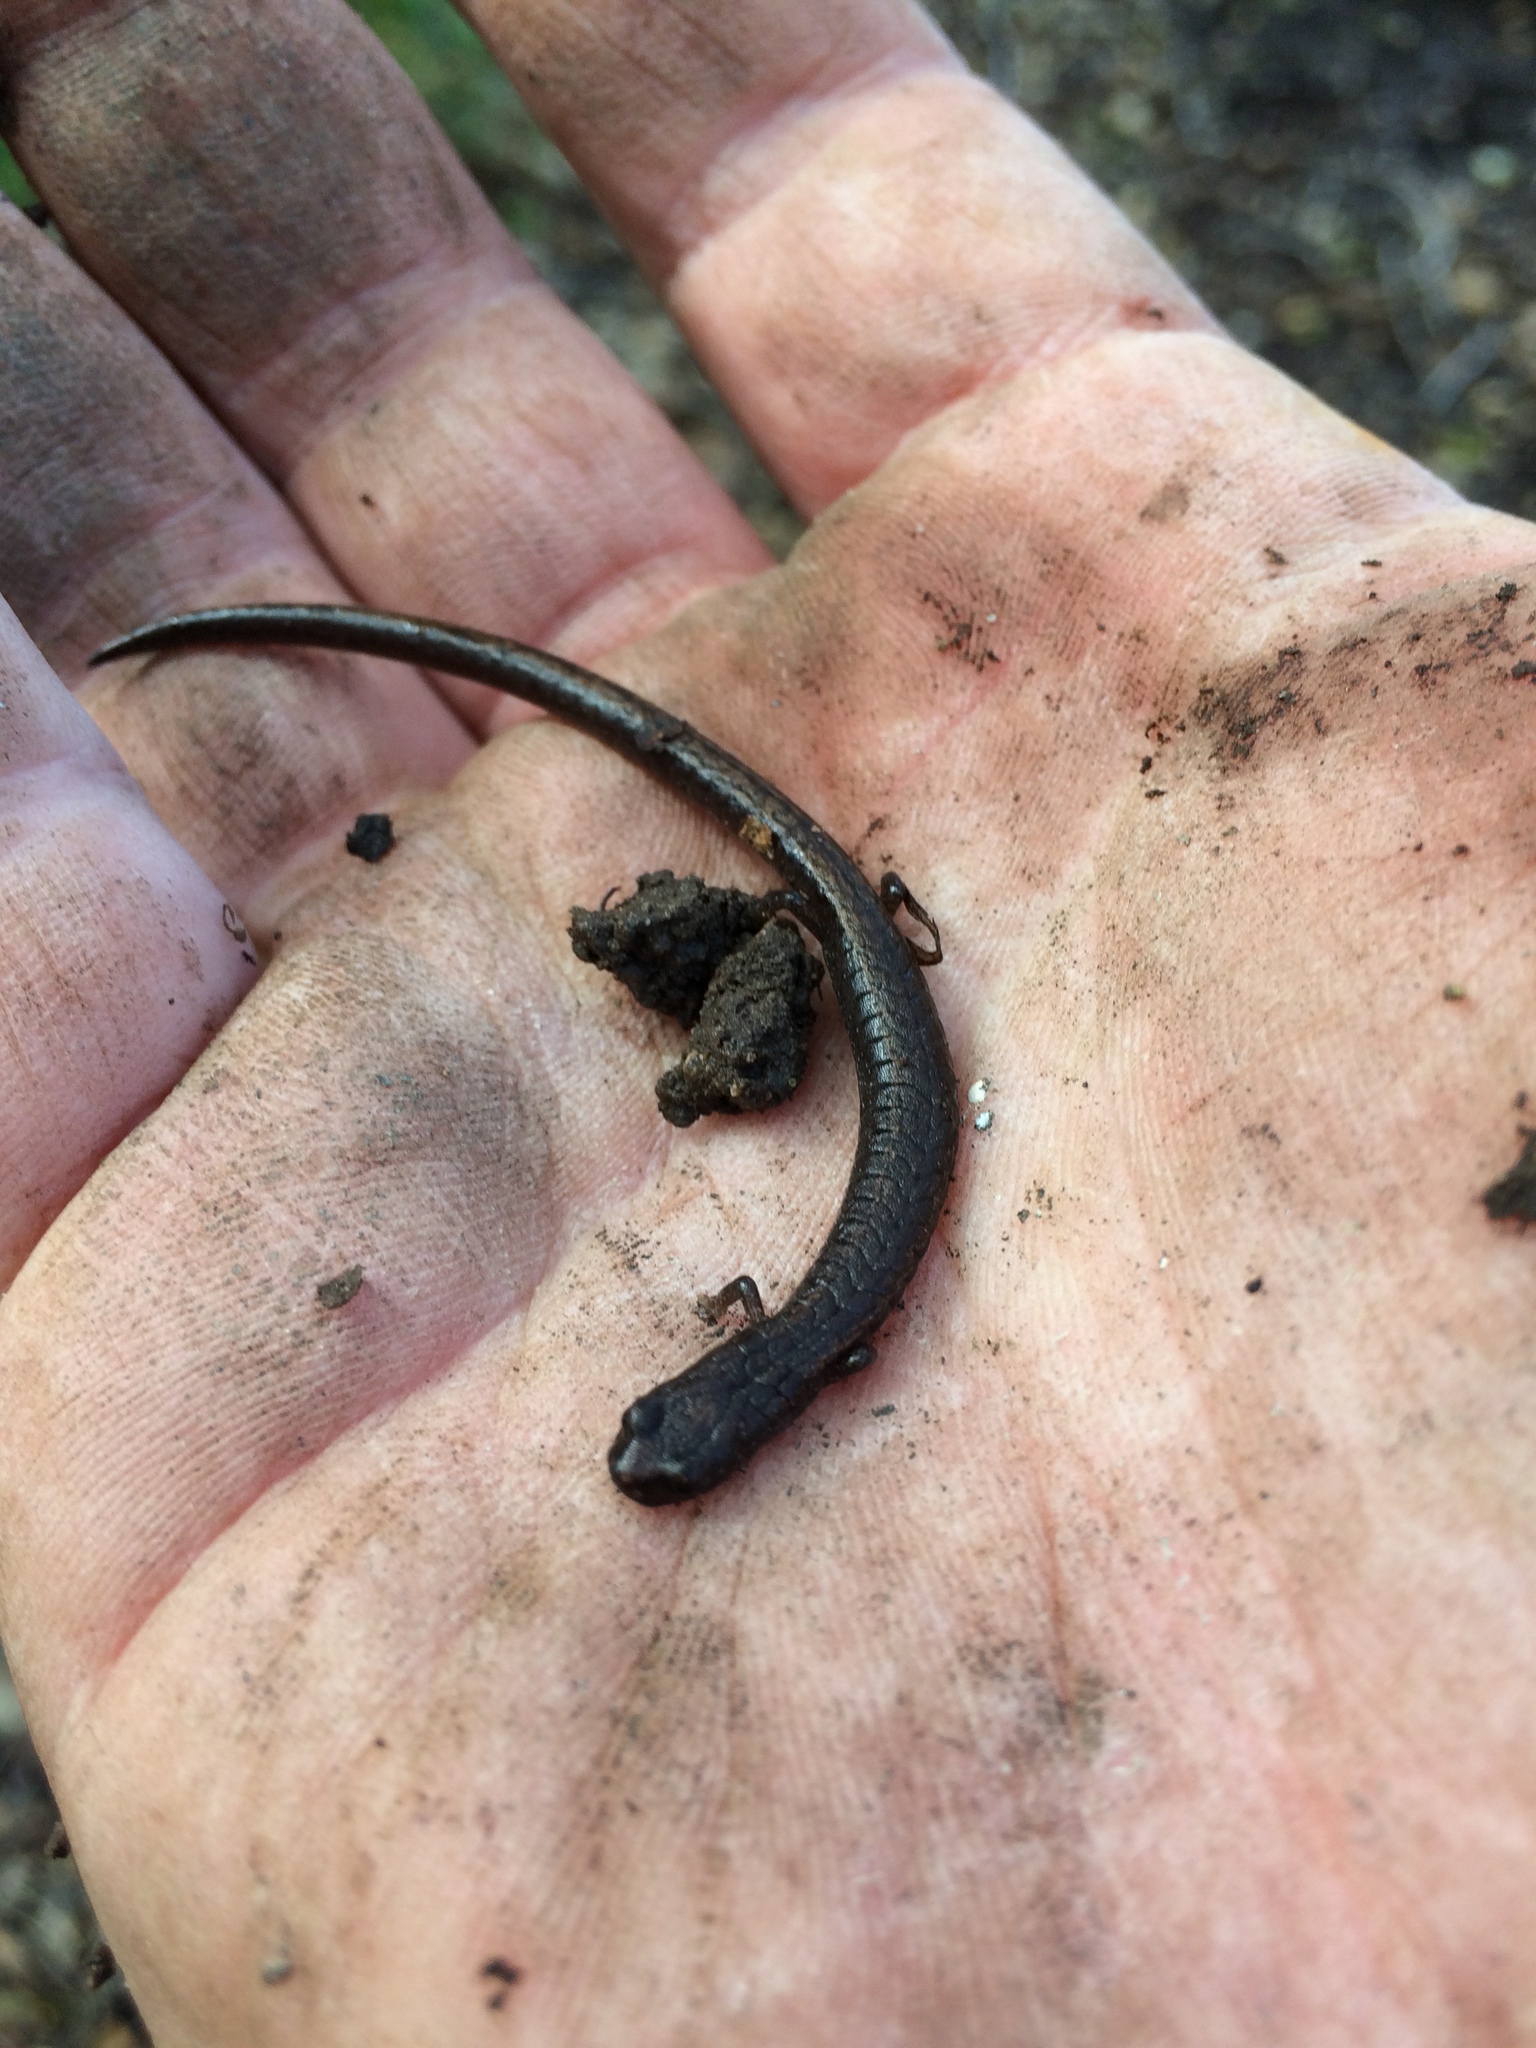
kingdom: Animalia
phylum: Chordata
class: Amphibia
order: Caudata
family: Plethodontidae
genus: Batrachoseps
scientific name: Batrachoseps attenuatus
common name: California slender salamander
